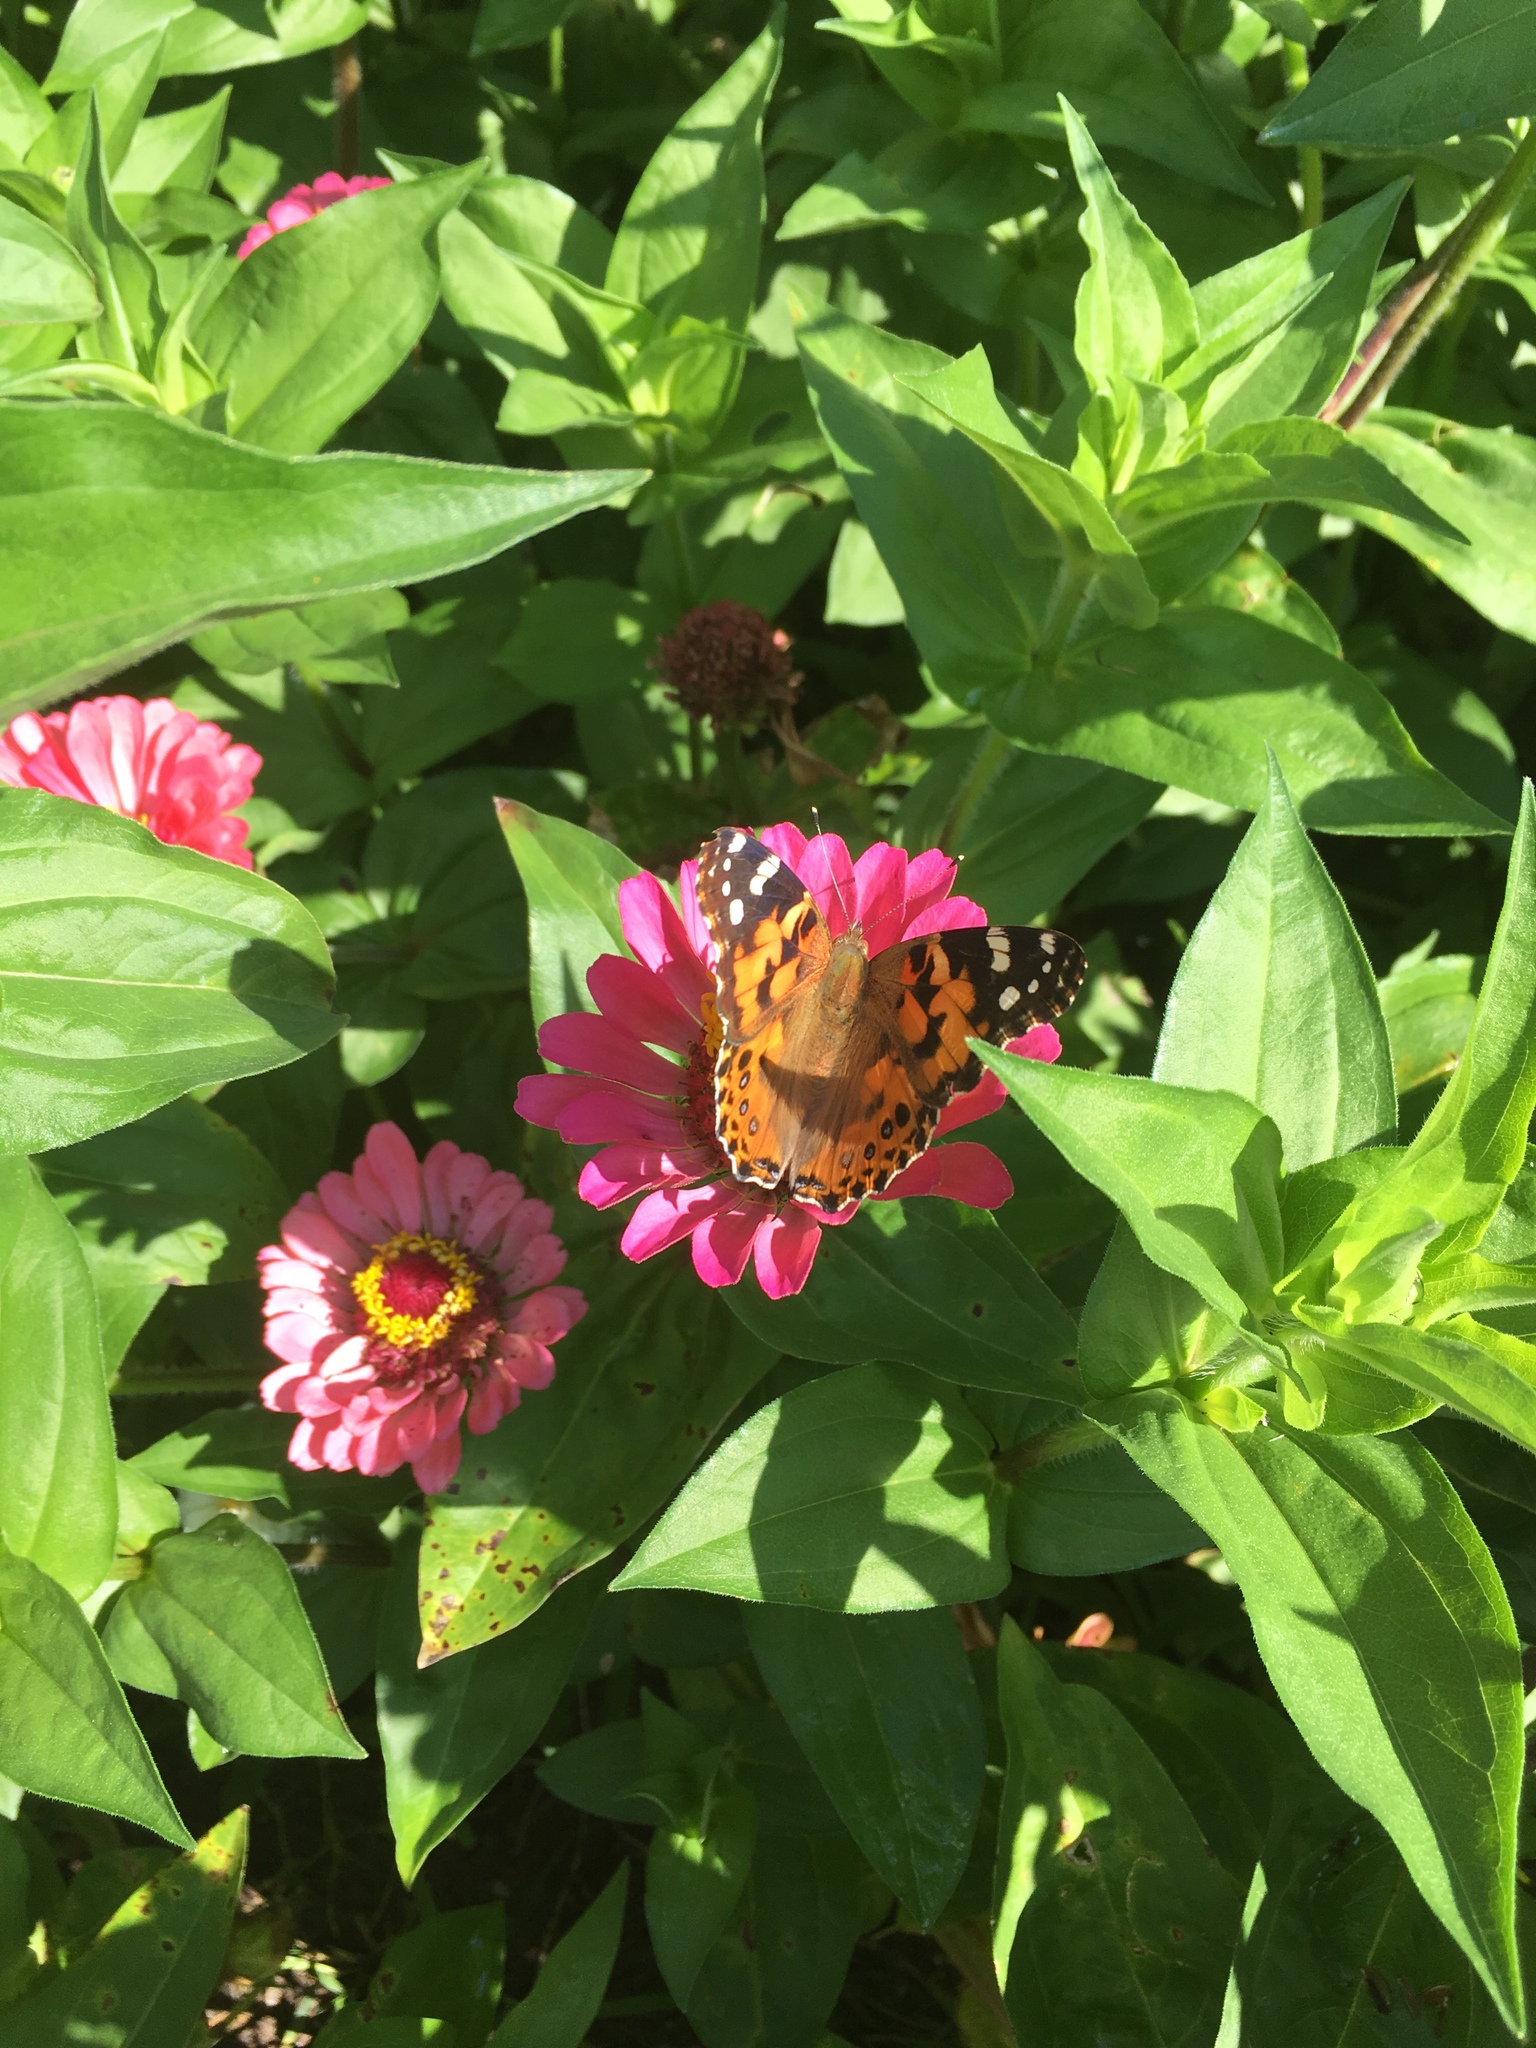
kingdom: Animalia
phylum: Arthropoda
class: Insecta
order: Lepidoptera
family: Nymphalidae
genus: Vanessa
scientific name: Vanessa cardui
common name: Painted lady
